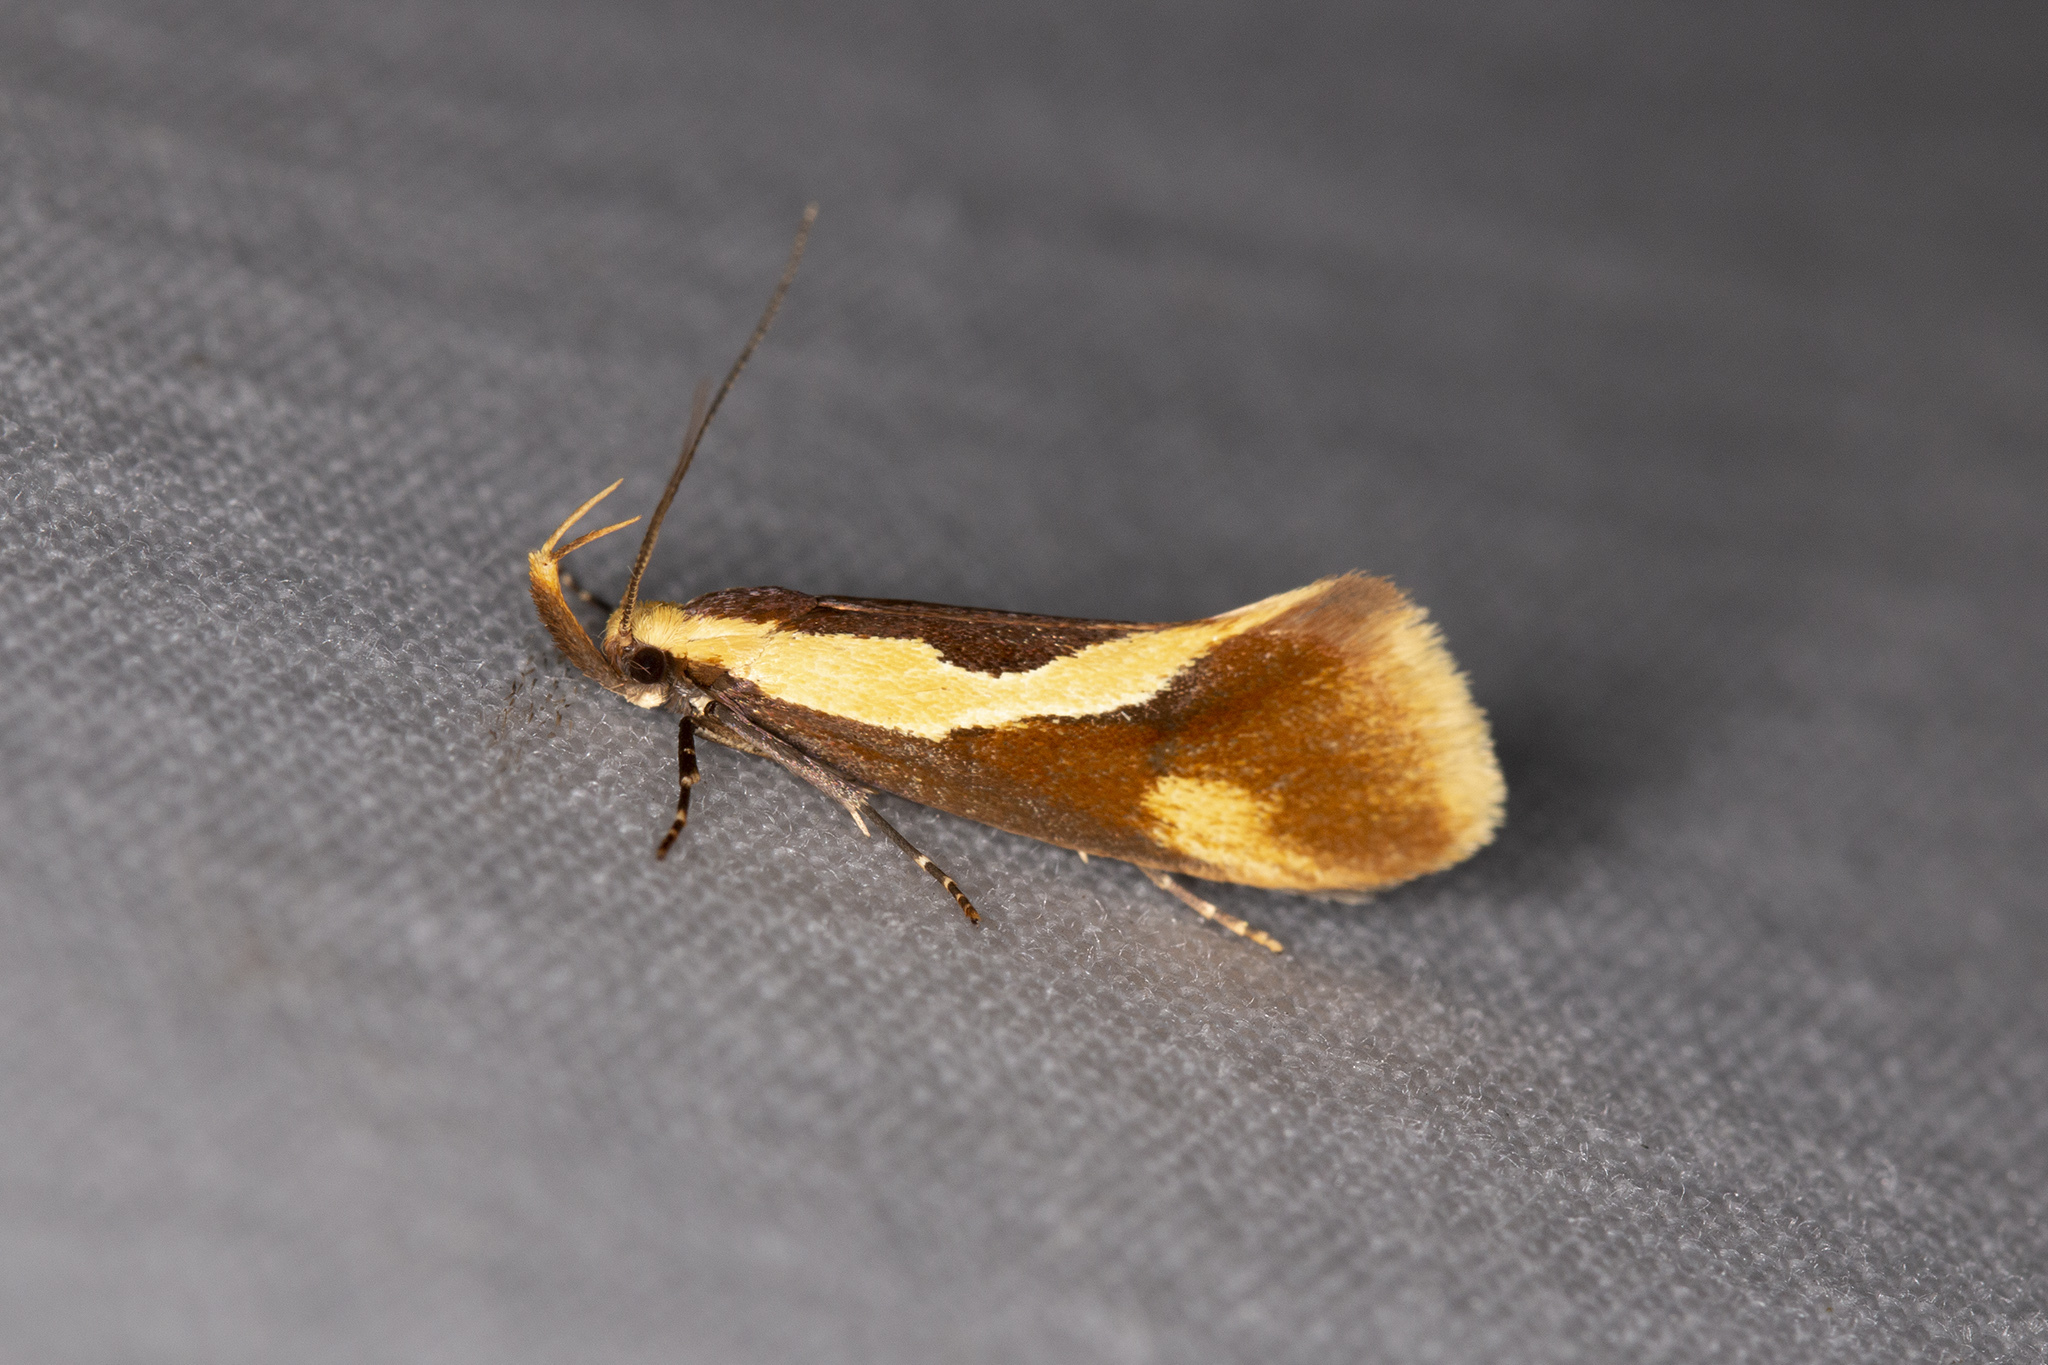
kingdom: Animalia
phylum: Arthropoda
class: Insecta
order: Lepidoptera
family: Oecophoridae
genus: Harpella
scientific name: Harpella forficella
